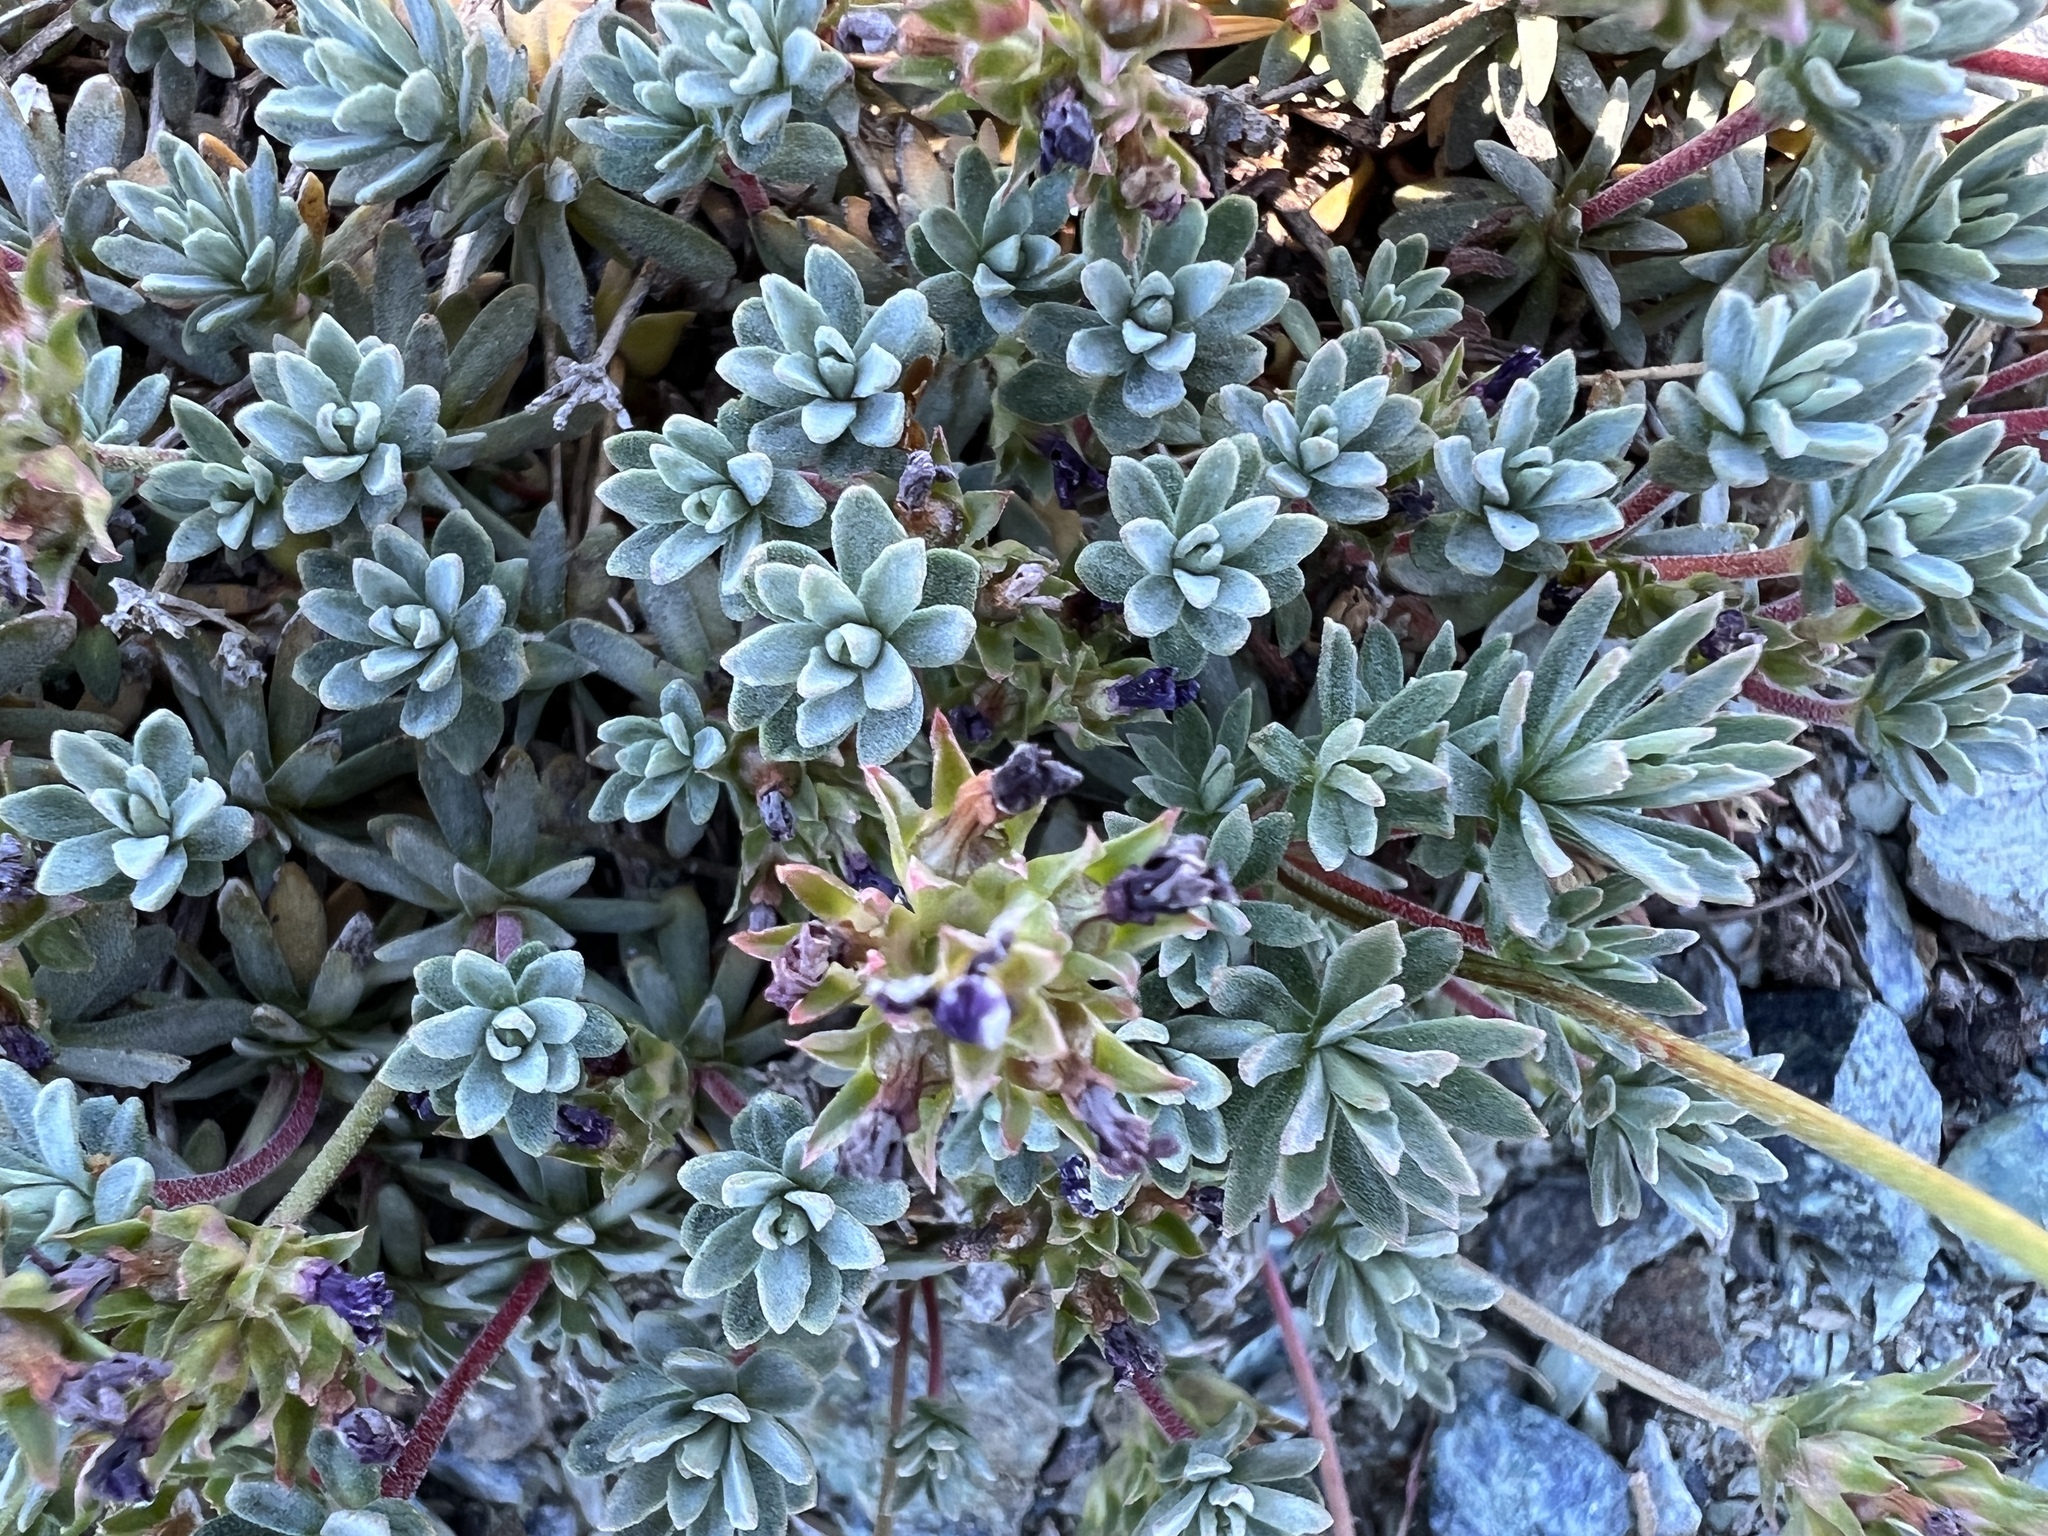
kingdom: Plantae
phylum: Tracheophyta
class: Magnoliopsida
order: Ericales
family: Primulaceae
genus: Androsace
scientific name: Androsace nivalis
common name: Snow dwarf-primrose
